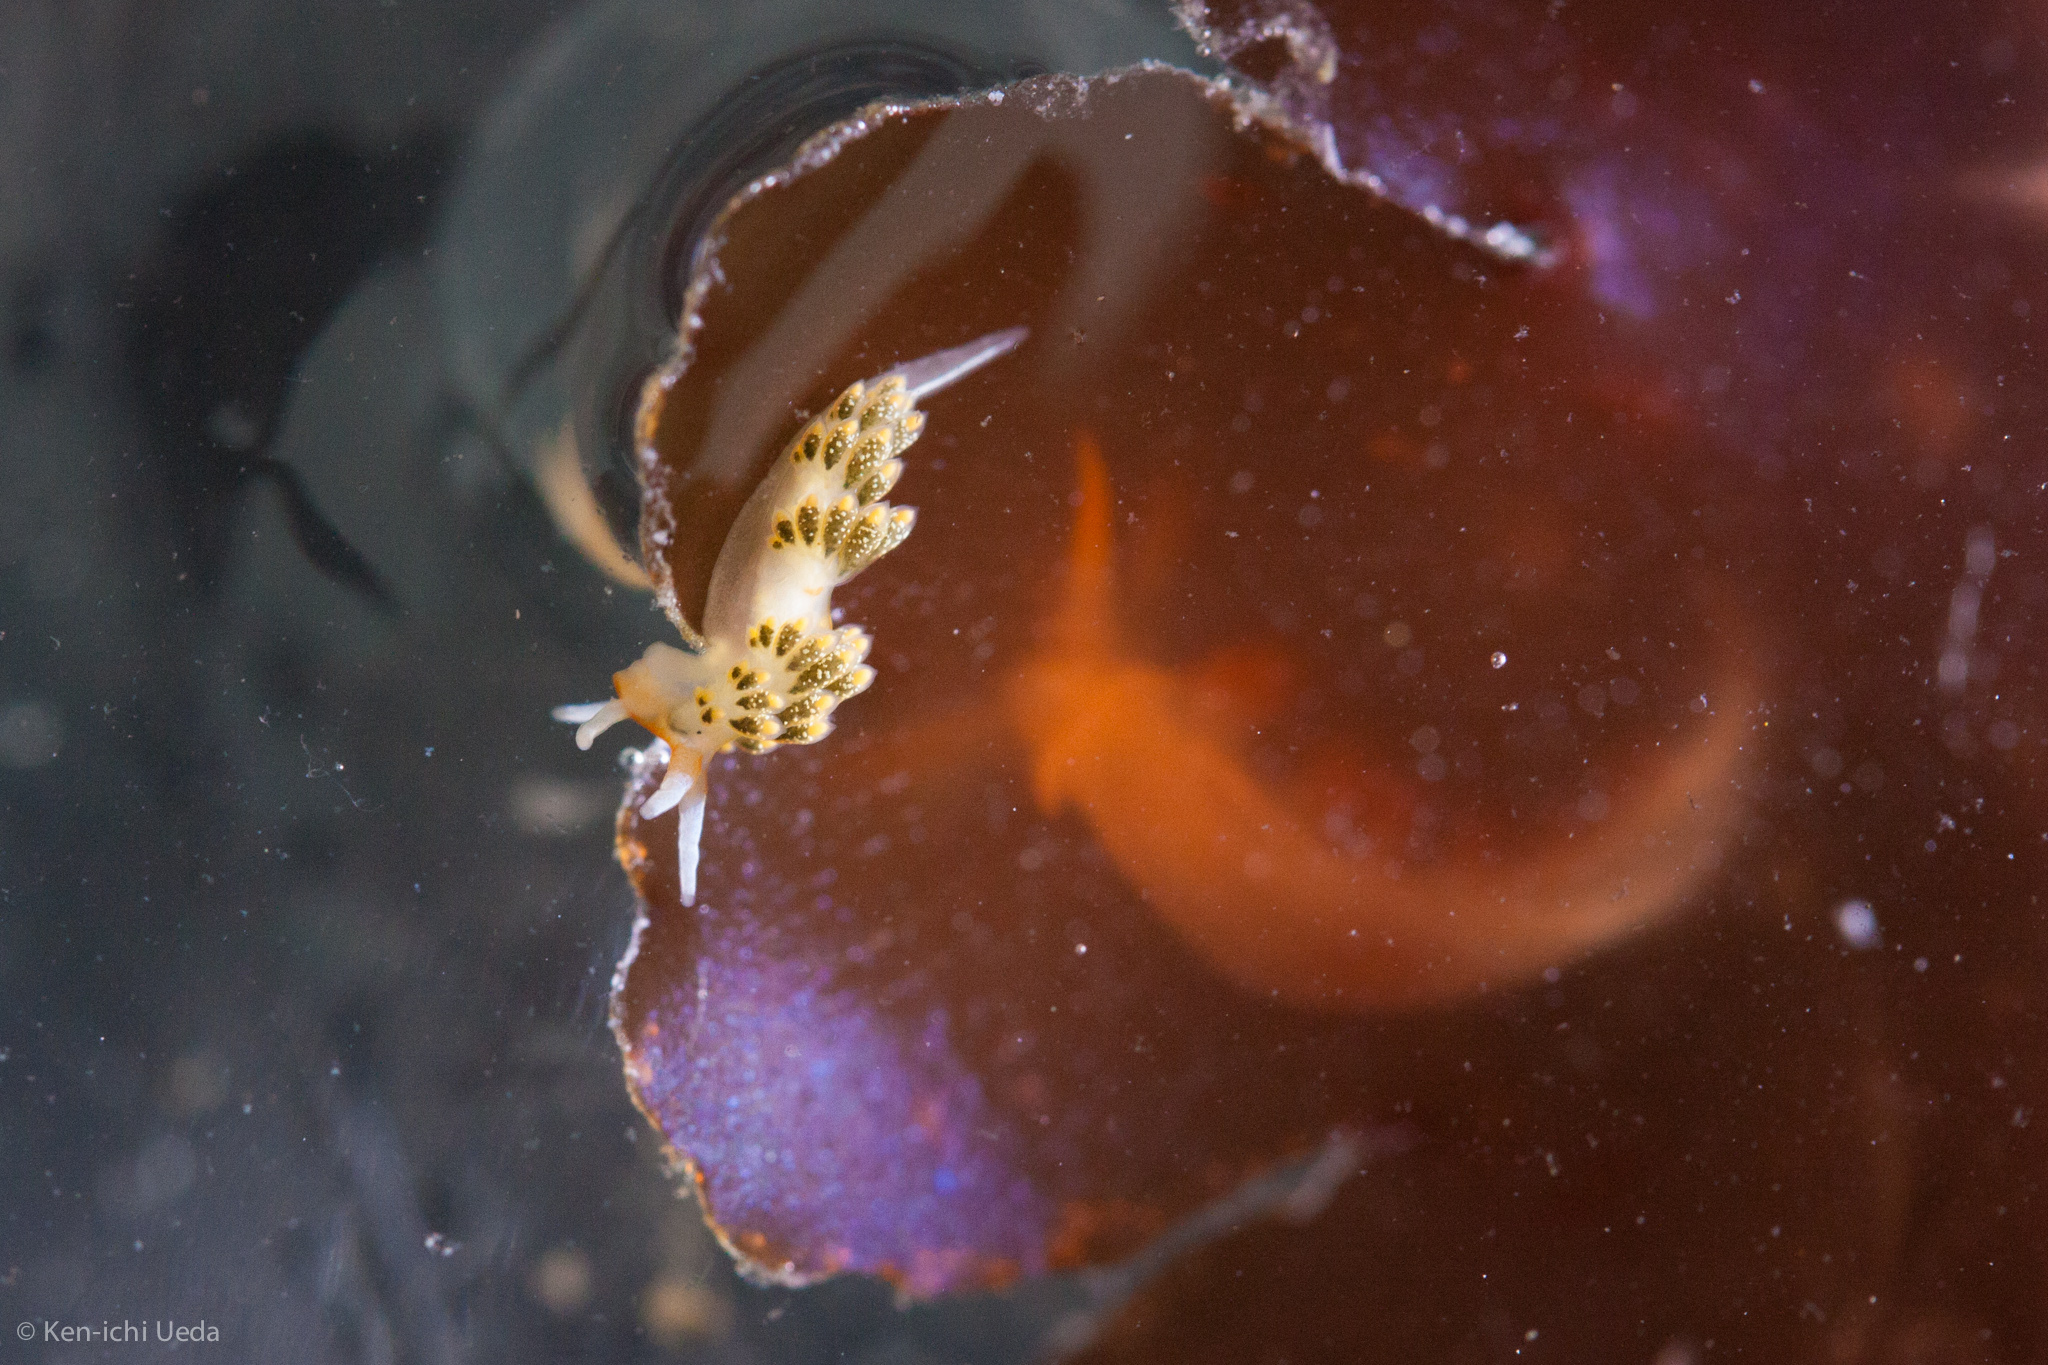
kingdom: Animalia
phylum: Mollusca
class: Gastropoda
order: Nudibranchia
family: Trinchesiidae
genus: Diaphoreolis
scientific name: Diaphoreolis flavovulta
